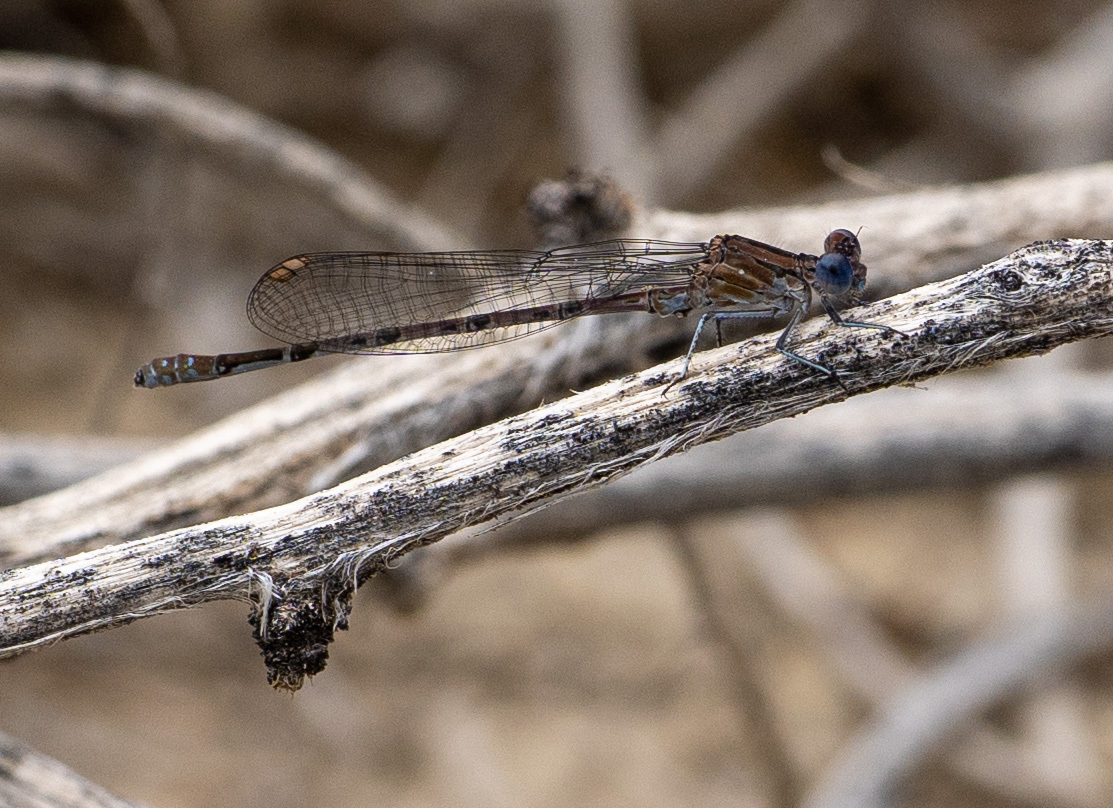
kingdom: Animalia
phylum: Arthropoda
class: Insecta
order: Odonata
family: Coenagrionidae
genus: Argia
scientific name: Argia vivida
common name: Vivid dancer
